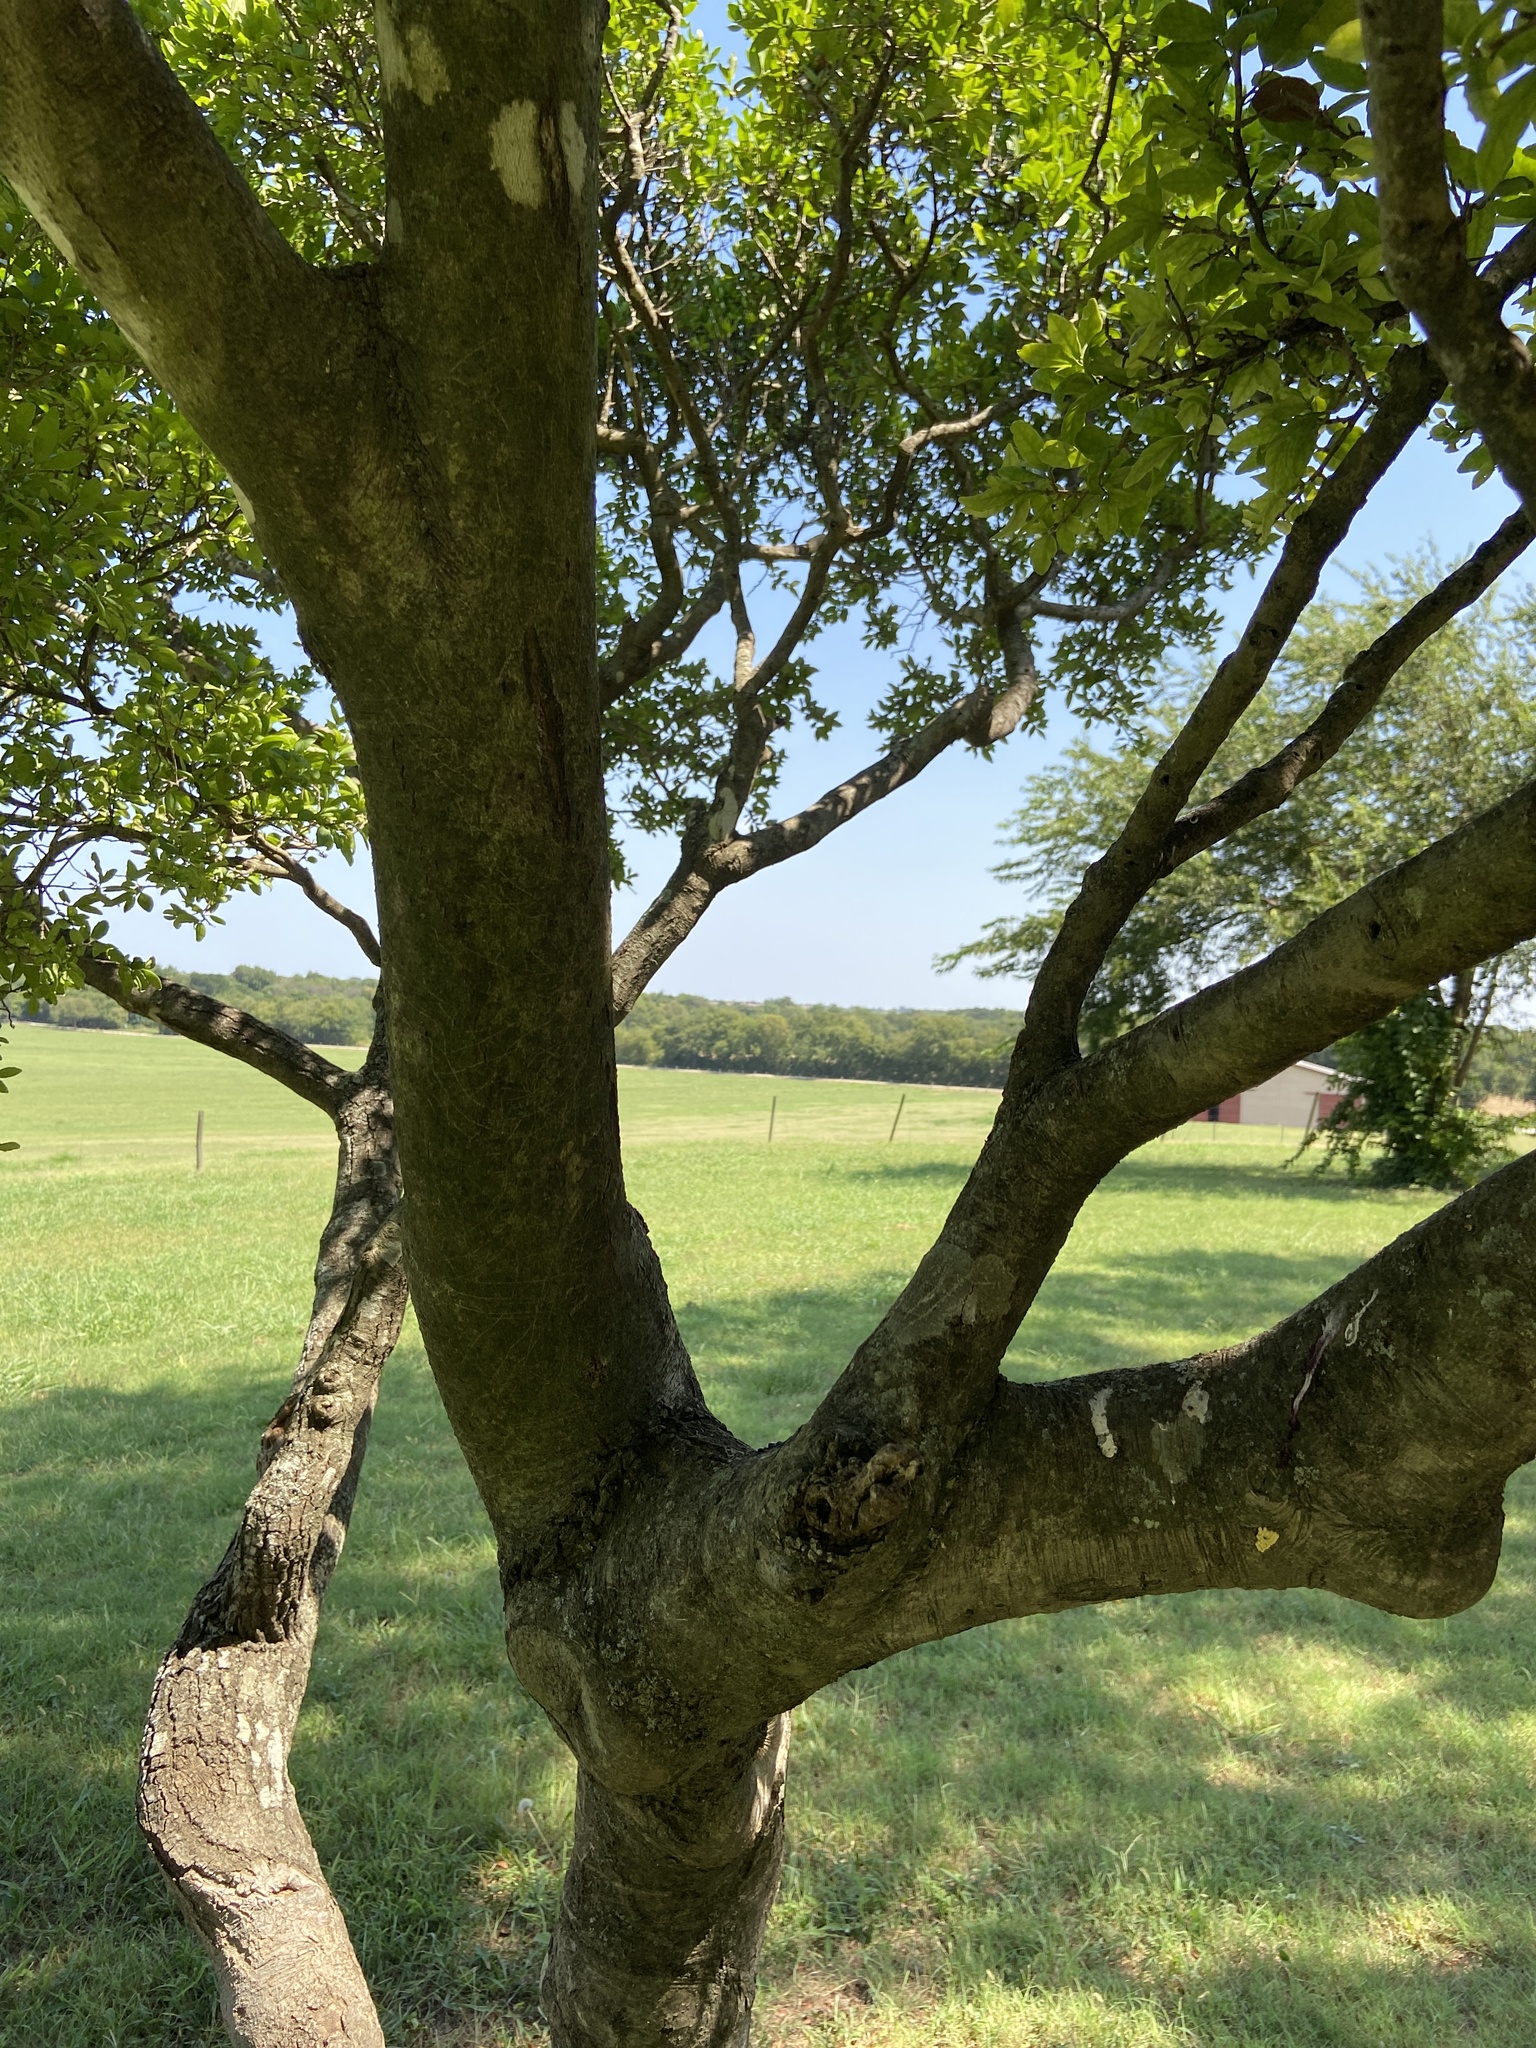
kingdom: Plantae
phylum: Tracheophyta
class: Magnoliopsida
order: Aquifoliales
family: Aquifoliaceae
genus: Ilex
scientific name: Ilex vomitoria
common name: Yaupon holly
